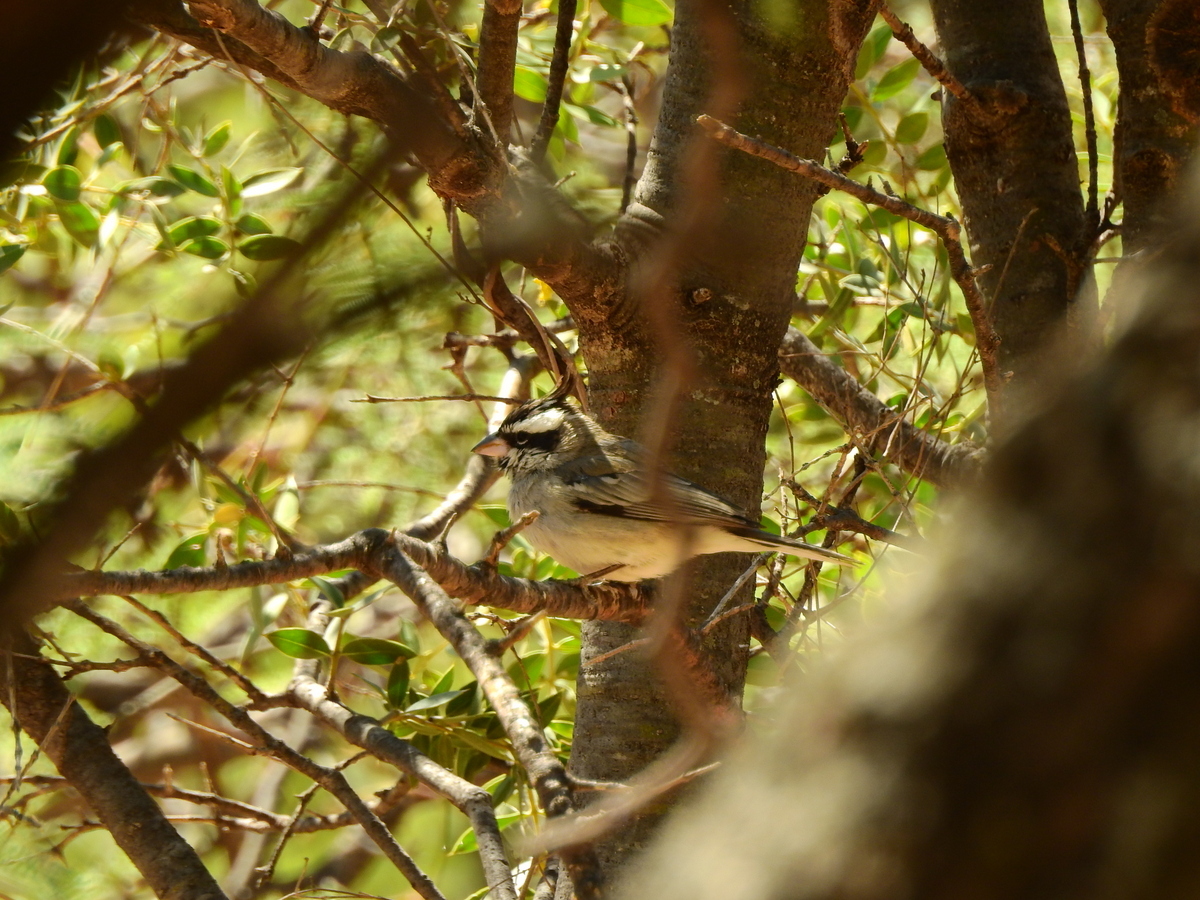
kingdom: Animalia
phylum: Chordata
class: Aves
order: Passeriformes
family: Thraupidae
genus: Lophospingus
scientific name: Lophospingus pusillus
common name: Black-crested finch
